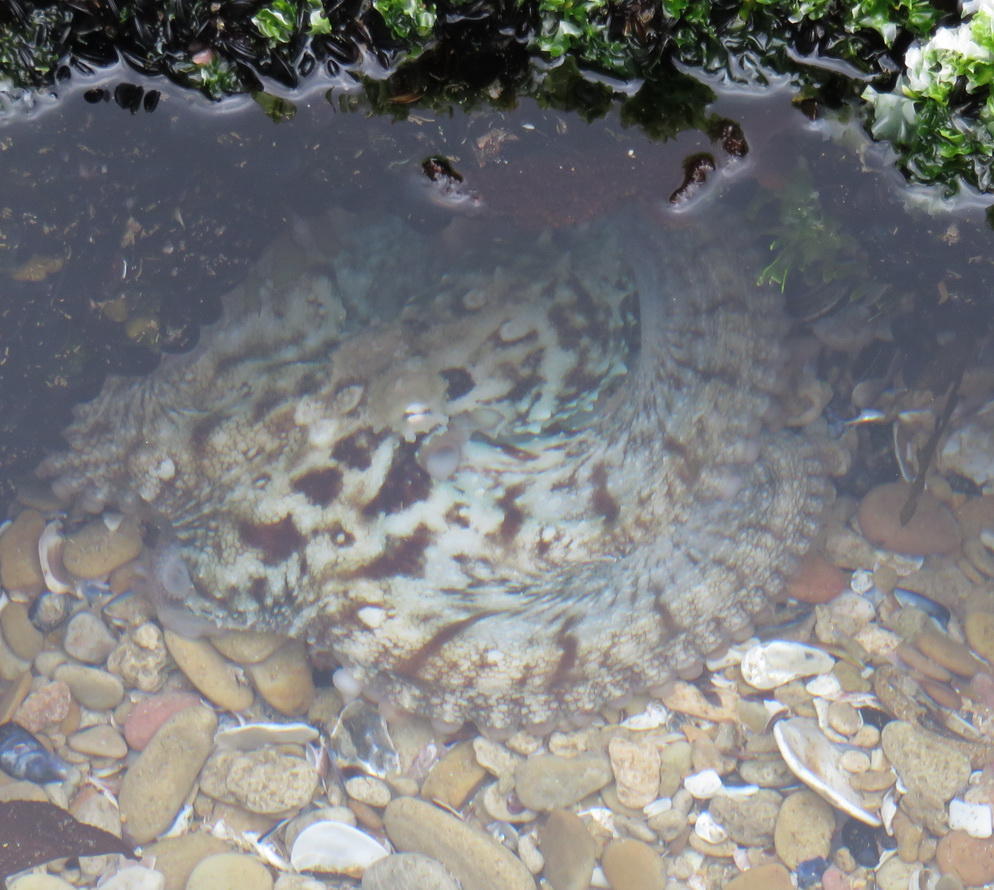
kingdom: Animalia
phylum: Mollusca
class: Cephalopoda
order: Octopoda
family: Octopodidae
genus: Octopus
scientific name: Octopus vulgaris
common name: Common octopus
